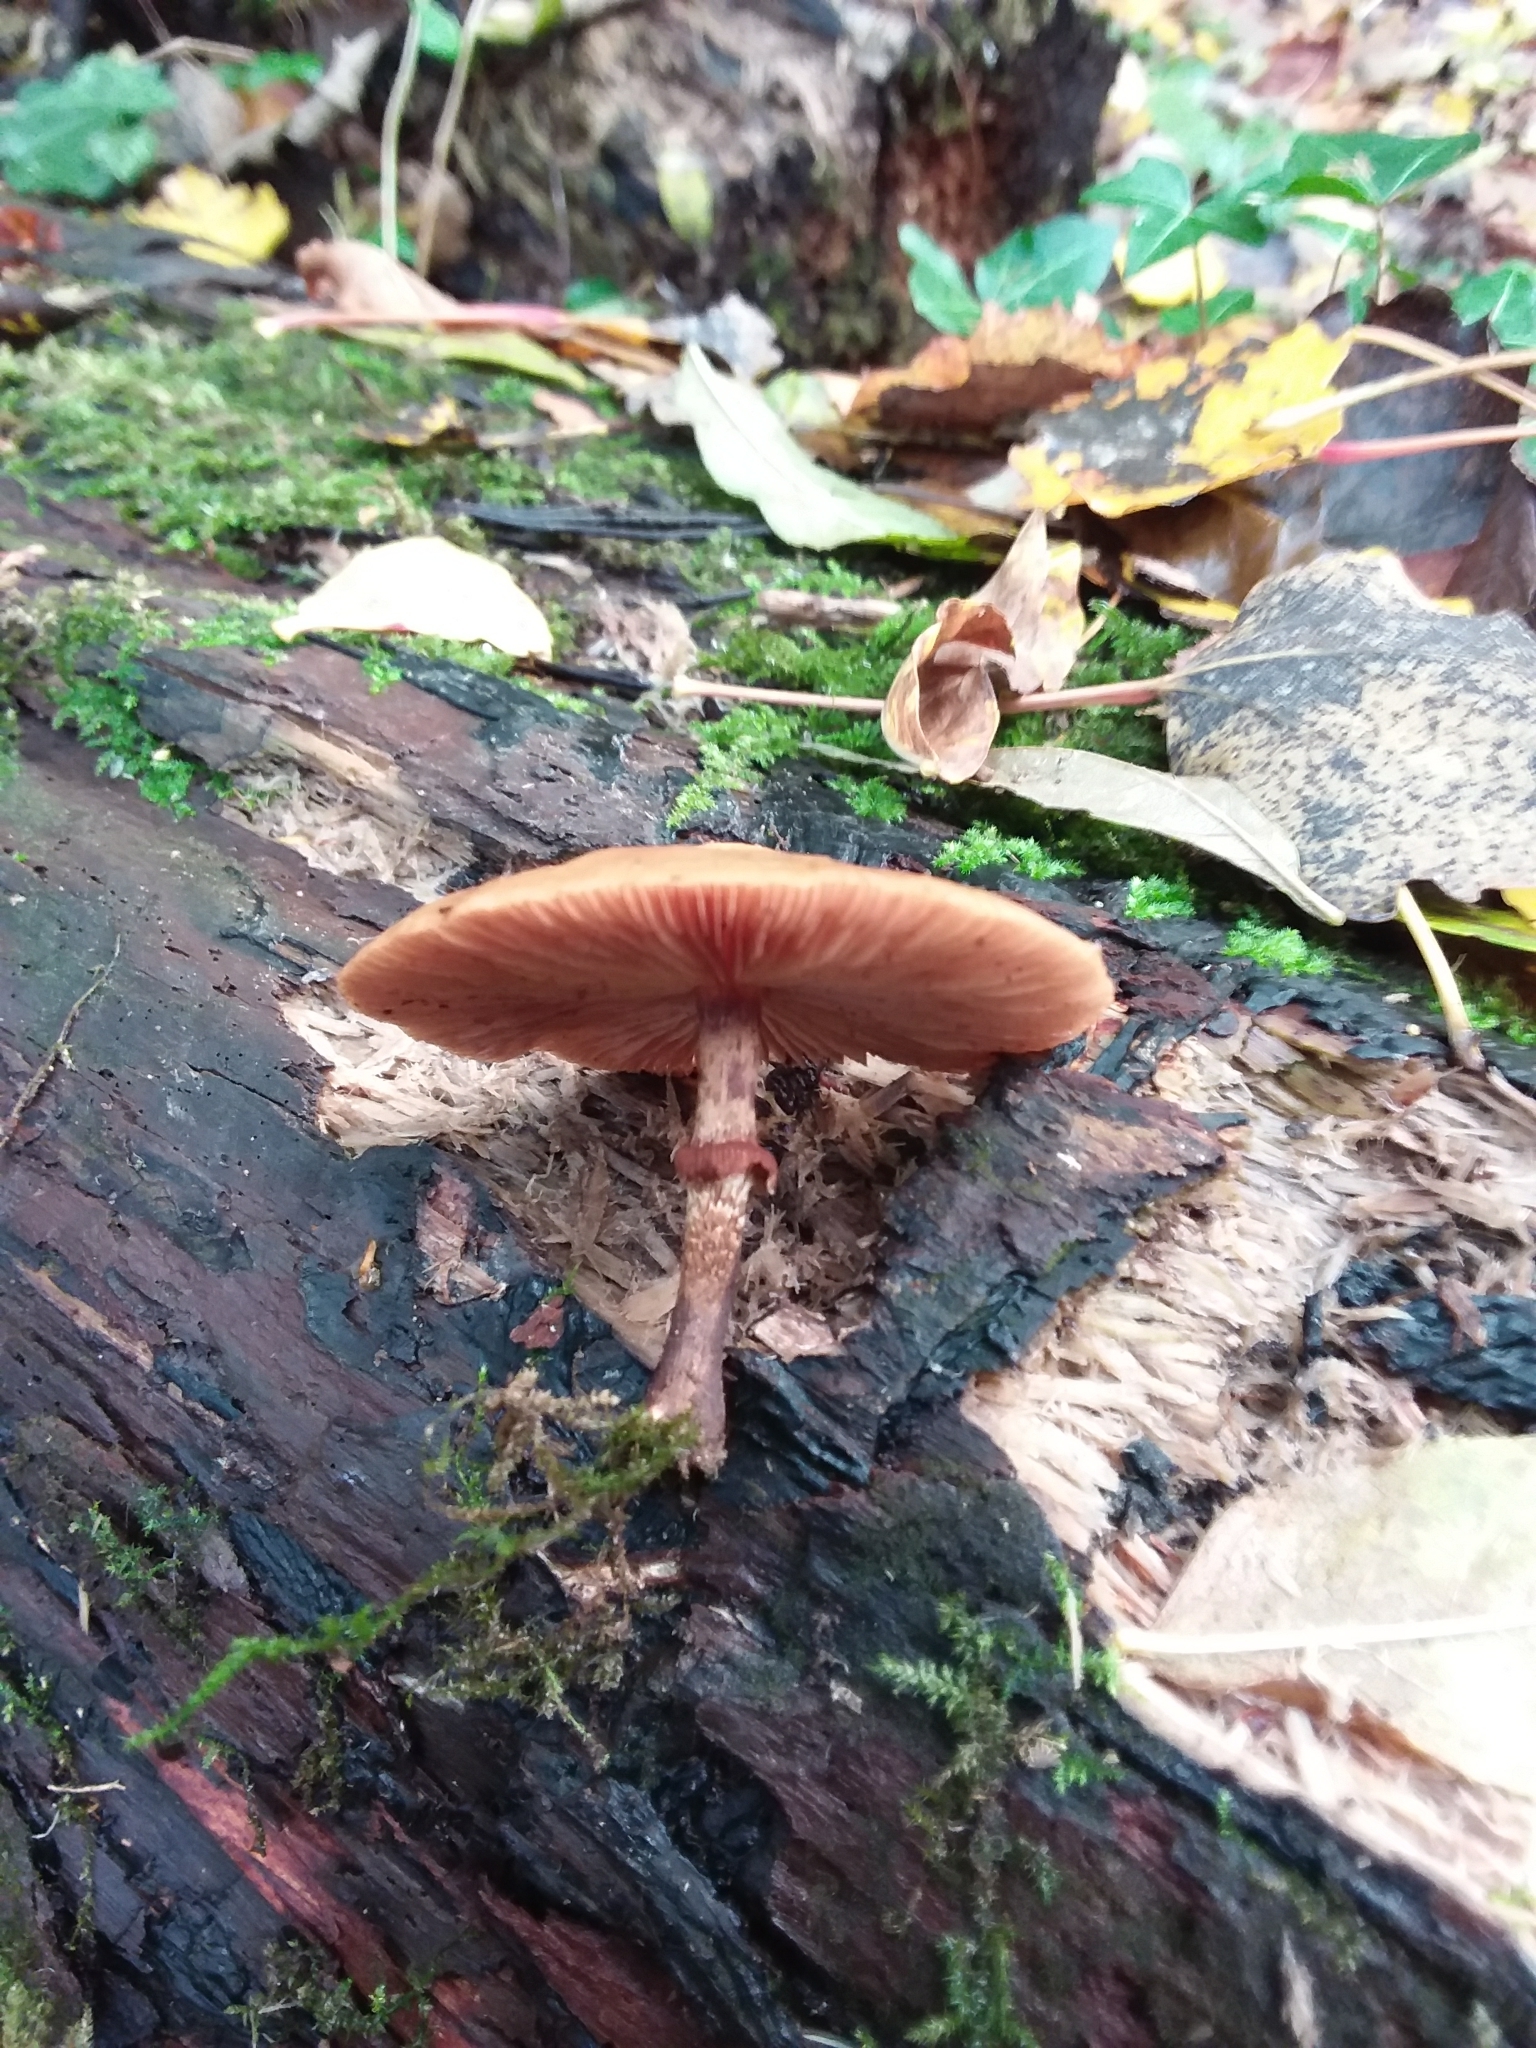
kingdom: Fungi
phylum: Basidiomycota
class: Agaricomycetes
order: Agaricales
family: Strophariaceae
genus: Kuehneromyces
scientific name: Kuehneromyces mutabilis
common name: Sheathed woodtuft
